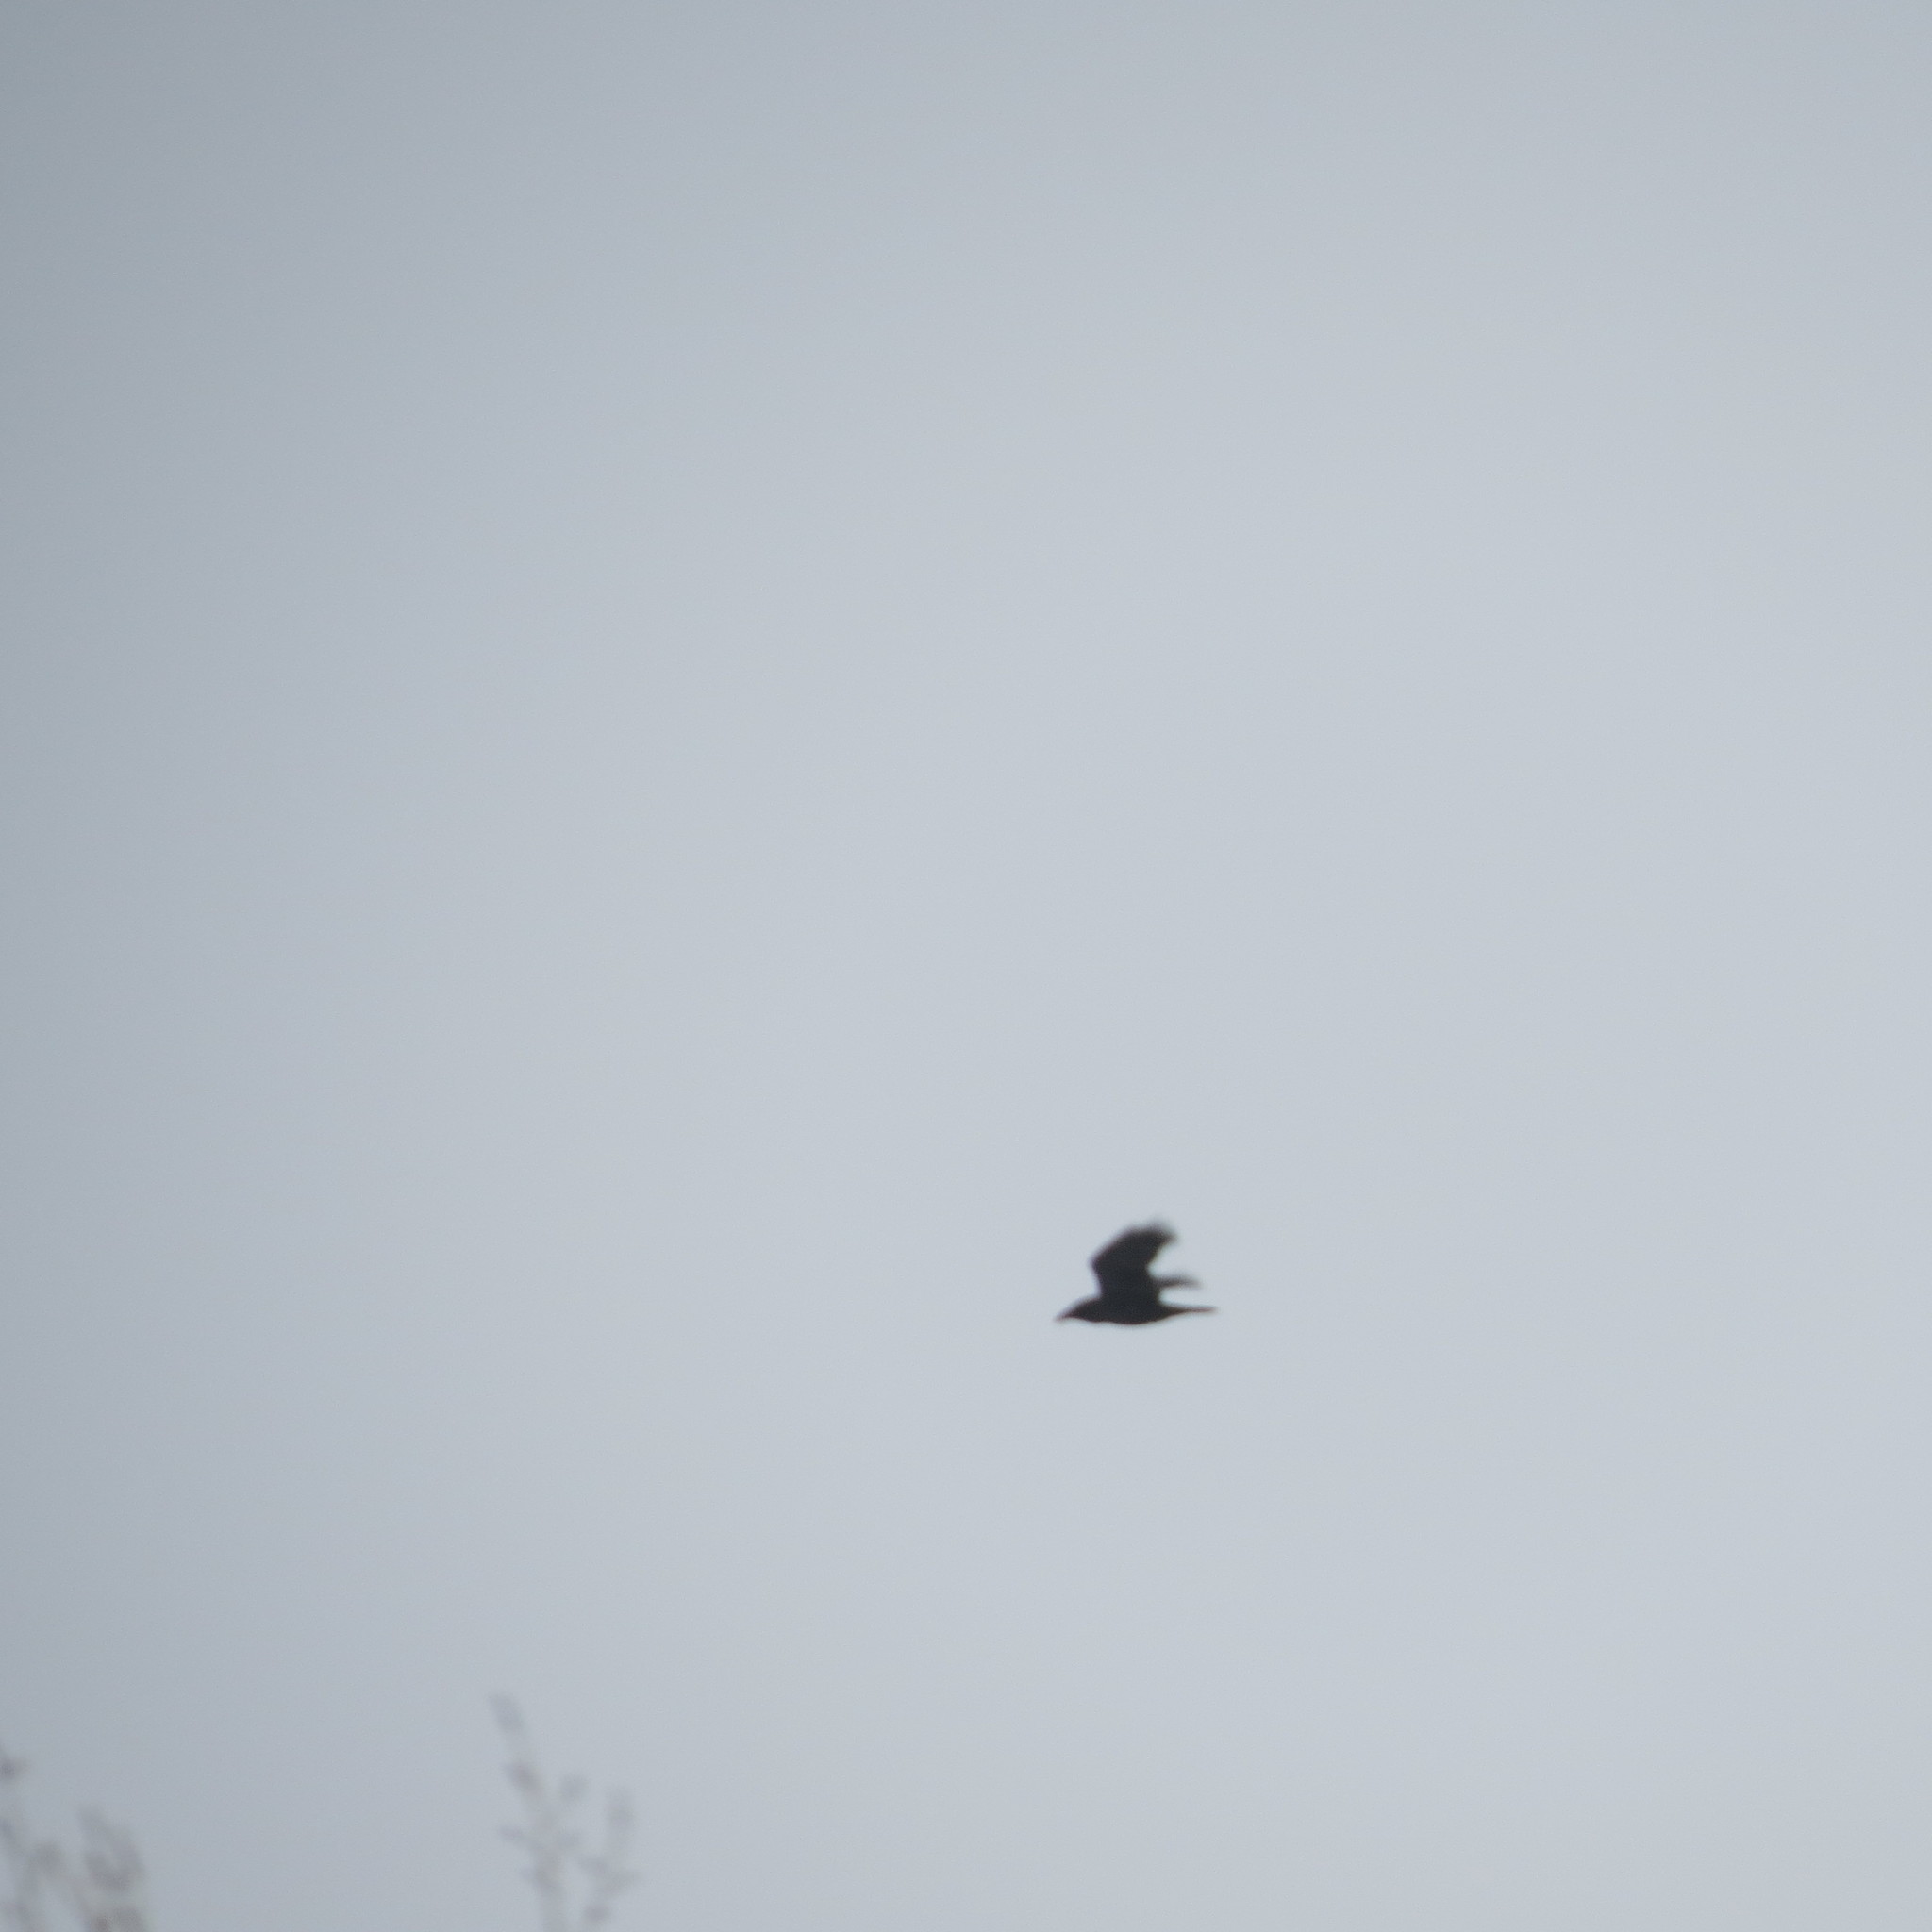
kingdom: Animalia
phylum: Chordata
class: Aves
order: Passeriformes
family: Corvidae
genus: Corvus
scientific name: Corvus corax
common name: Common raven
